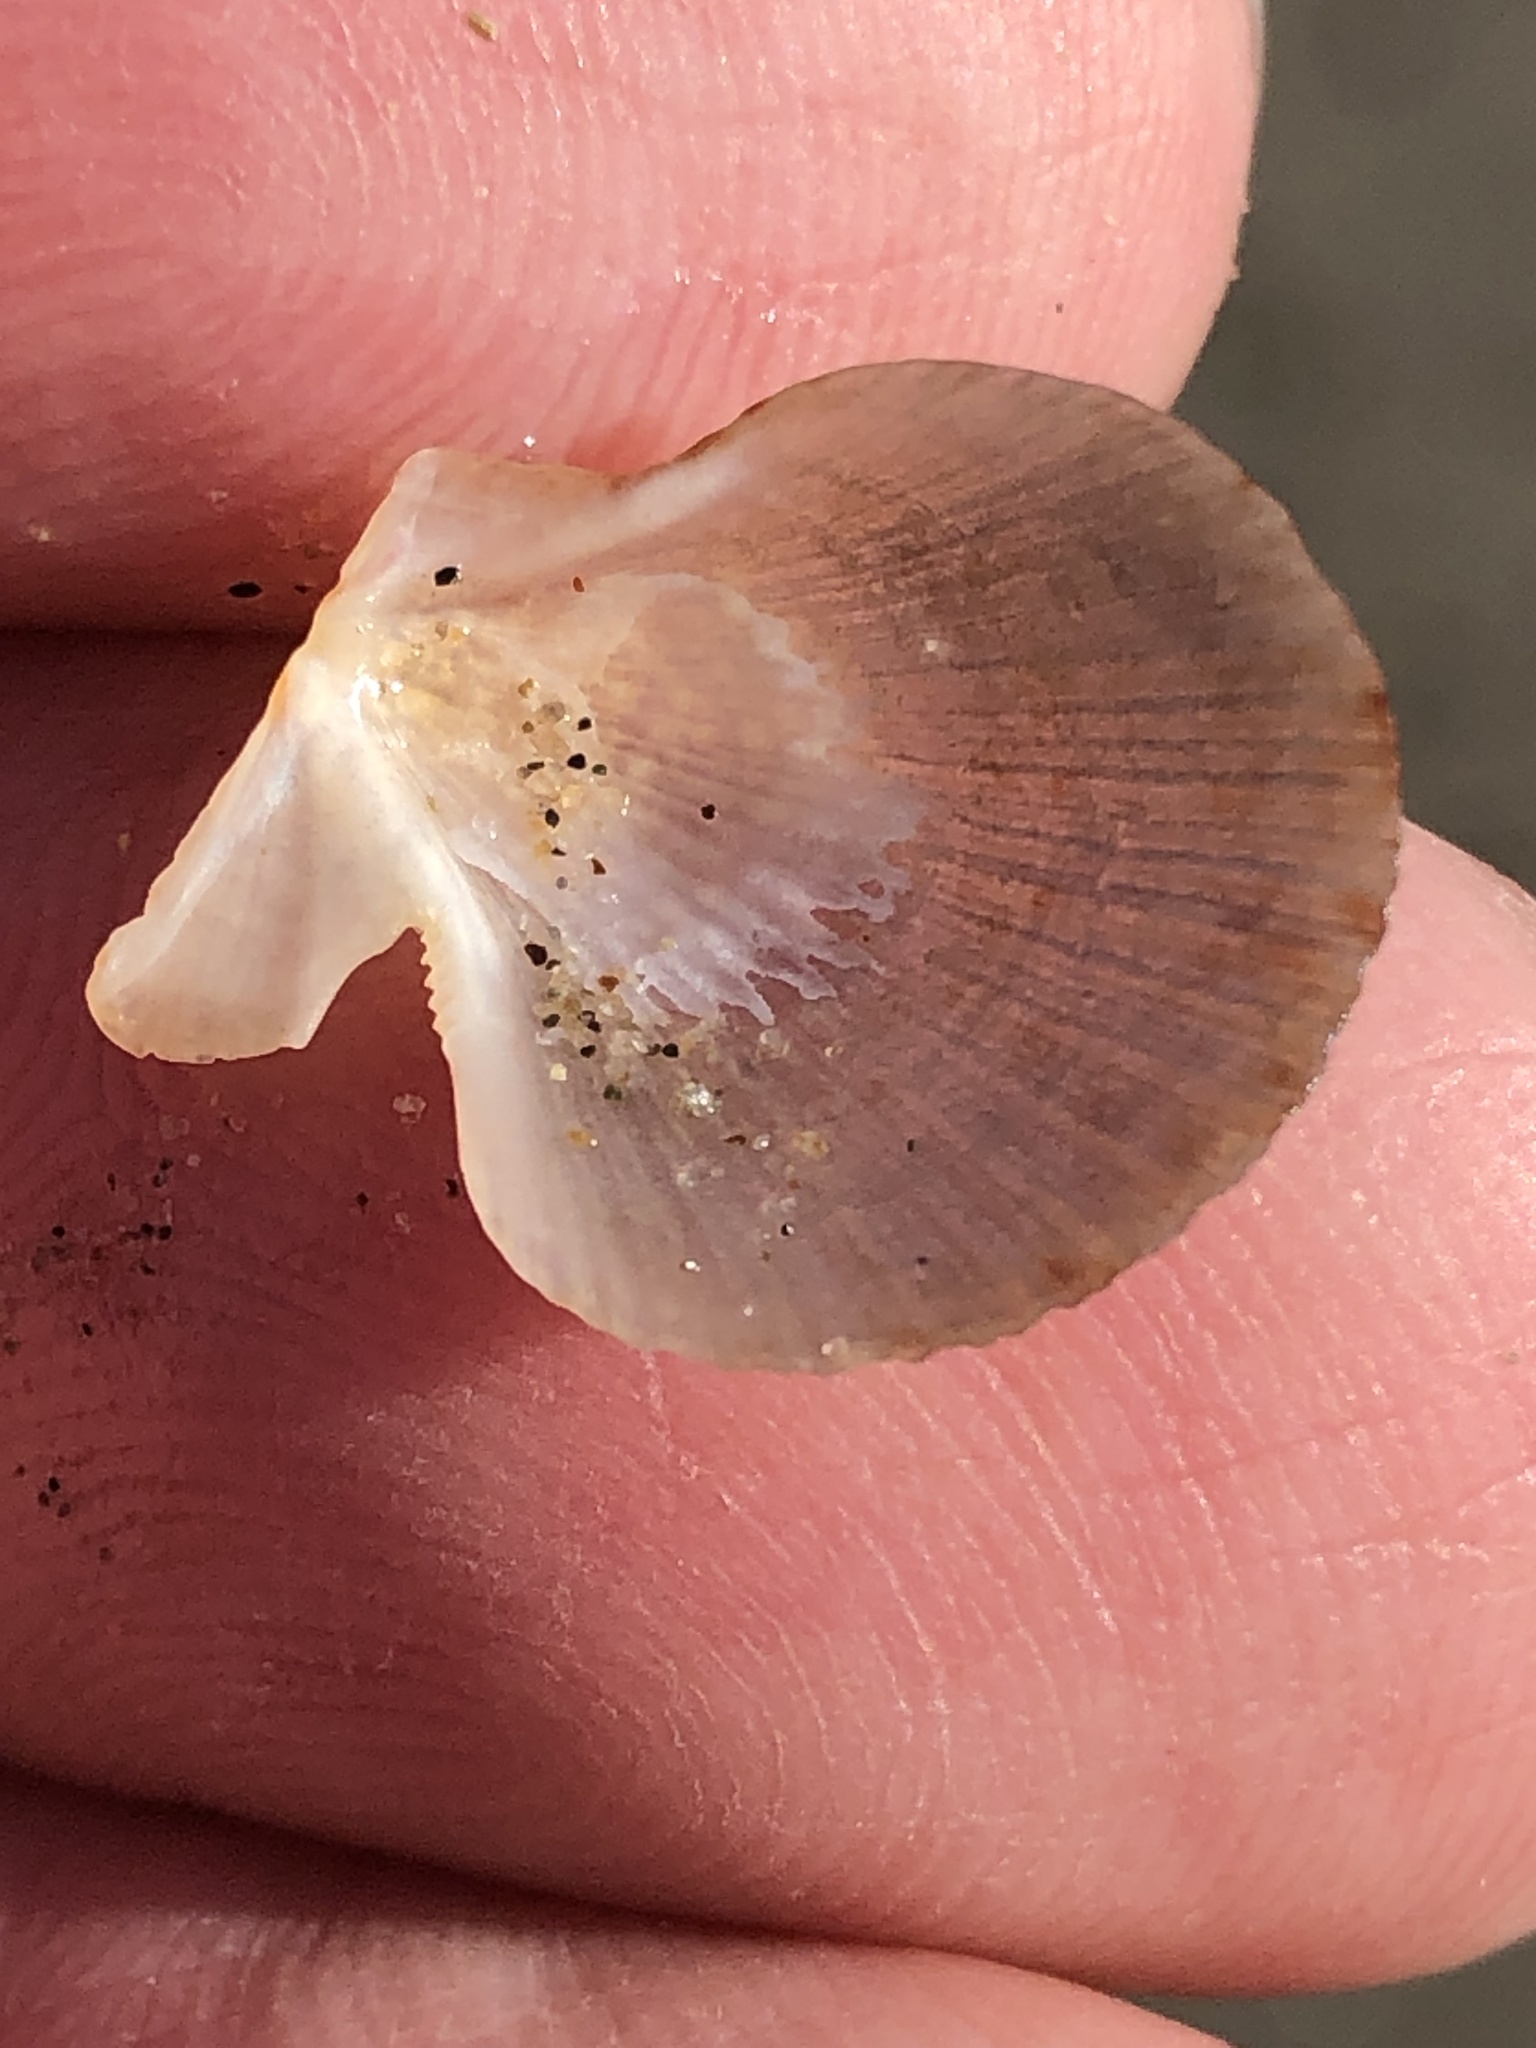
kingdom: Animalia
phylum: Mollusca
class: Bivalvia
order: Pectinida
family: Pectinidae
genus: Crassadoma
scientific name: Crassadoma gigantea
